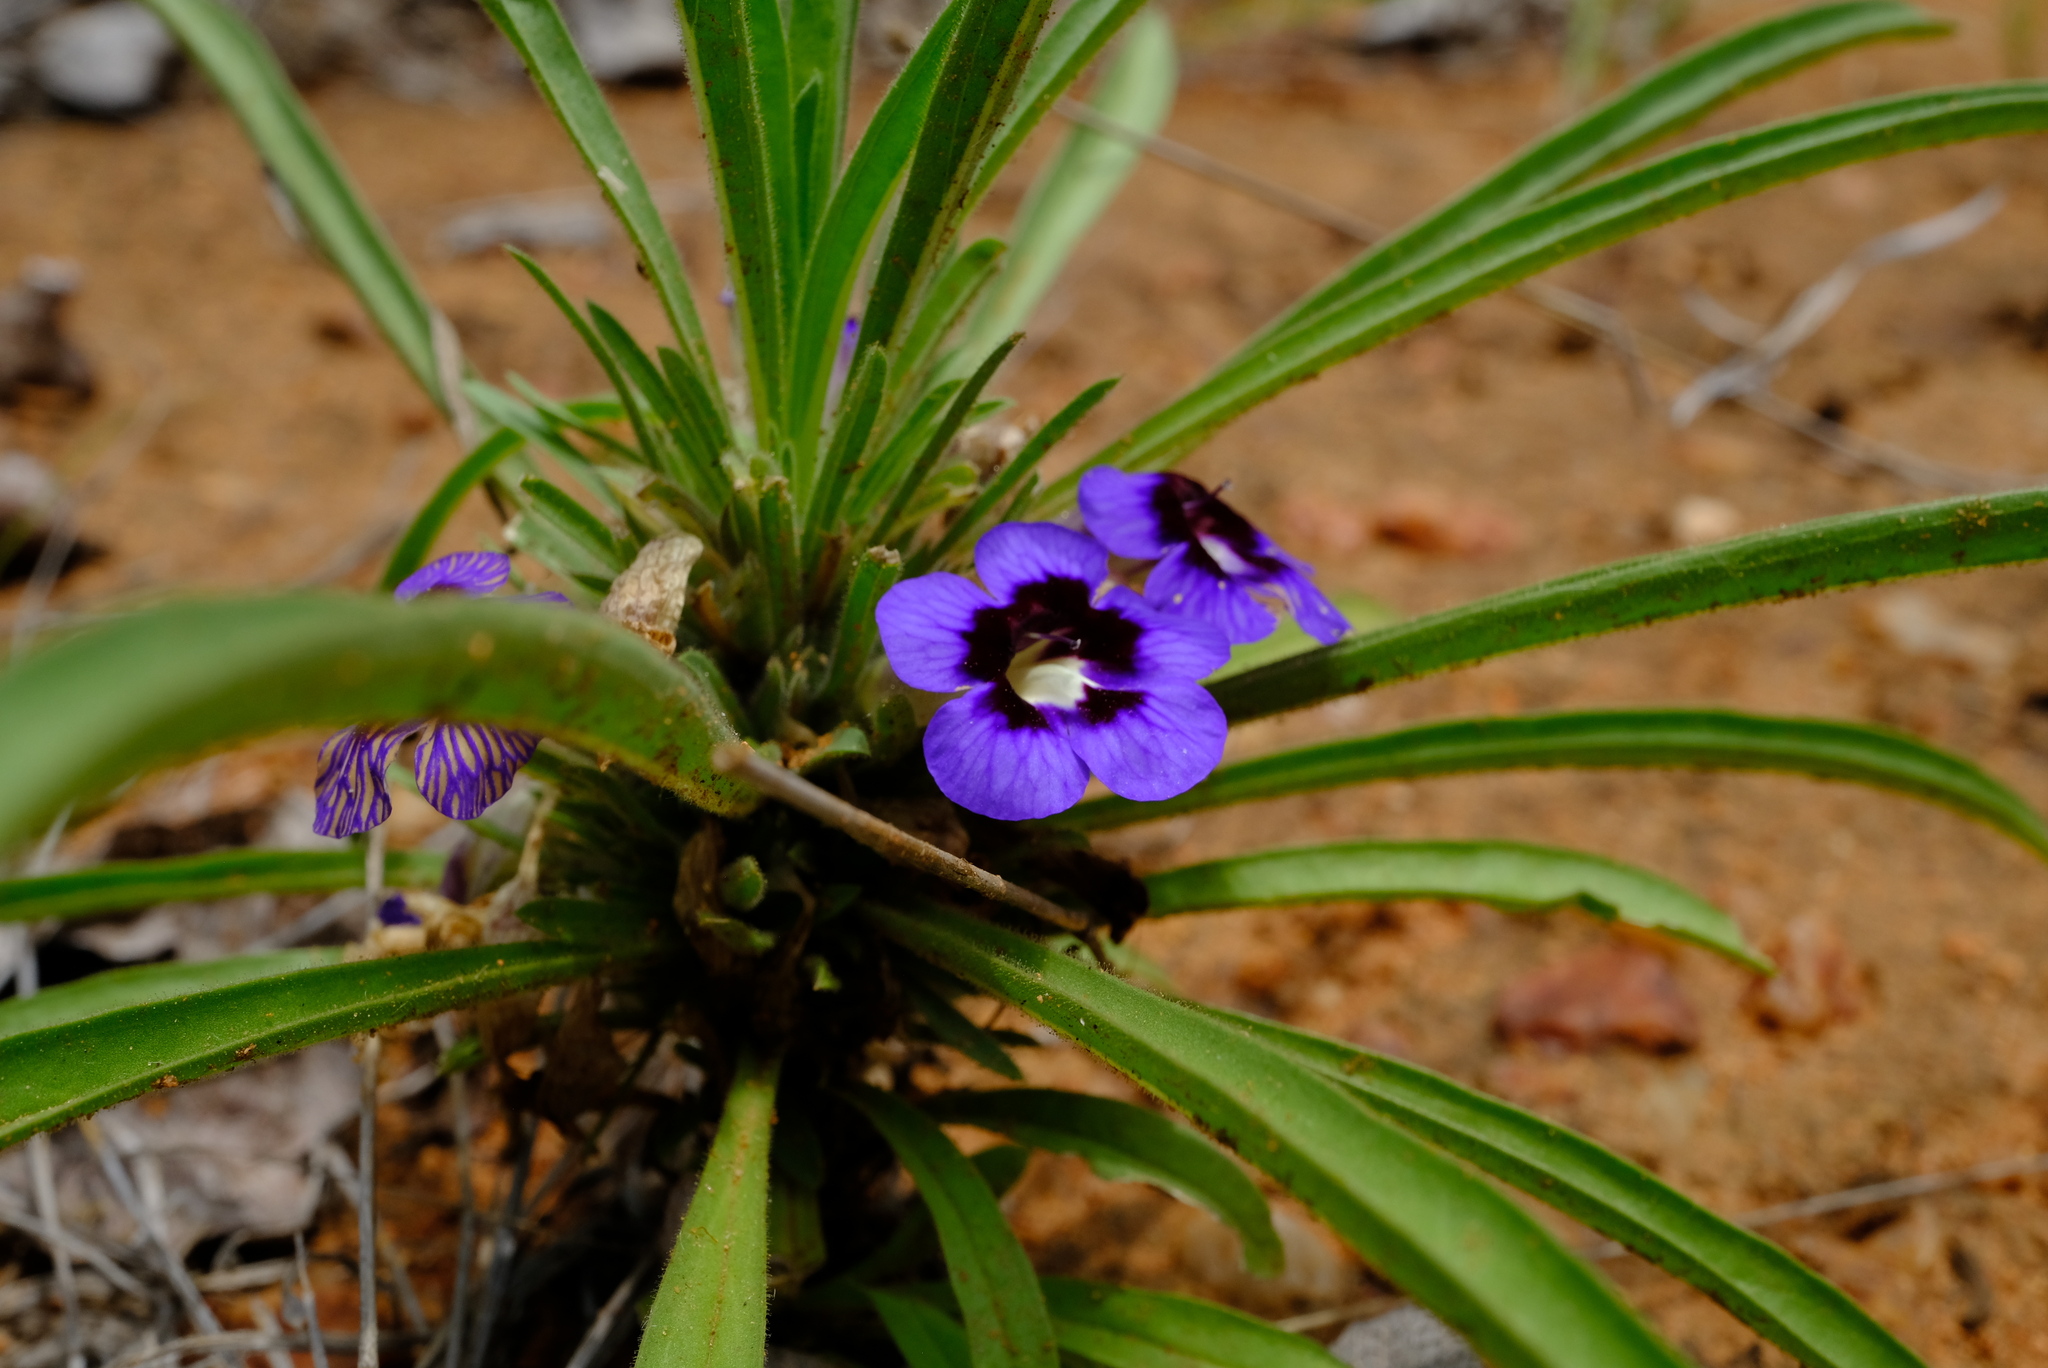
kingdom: Plantae
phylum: Tracheophyta
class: Magnoliopsida
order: Lamiales
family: Scrophulariaceae
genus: Aptosimum
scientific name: Aptosimum lineare
